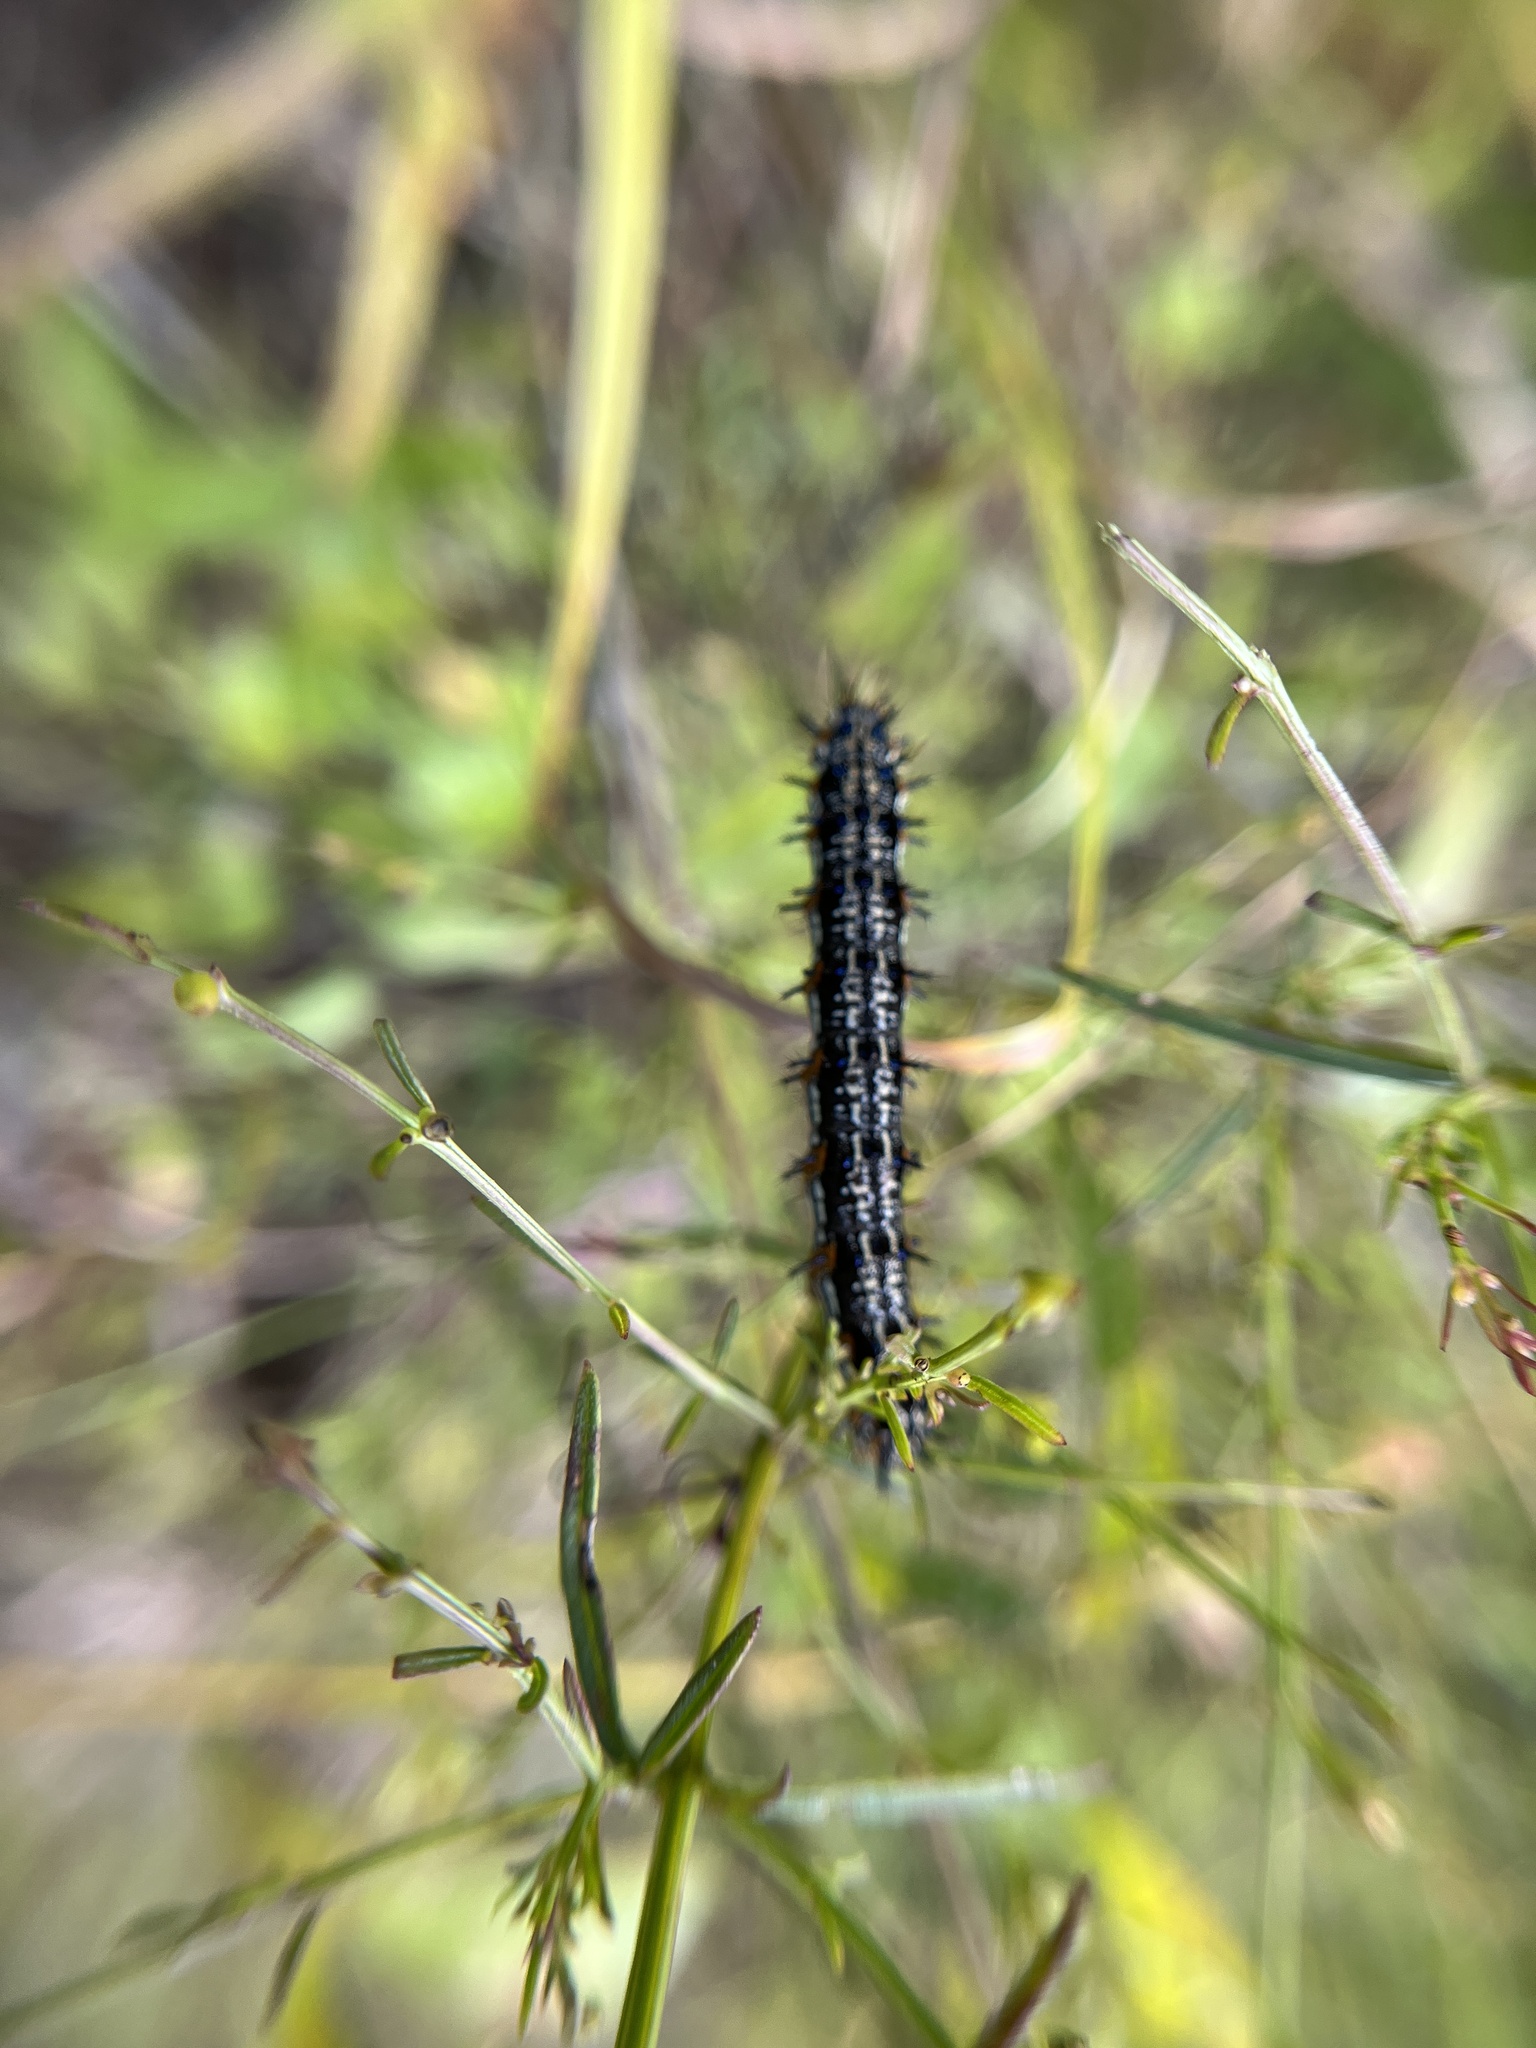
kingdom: Animalia
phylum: Arthropoda
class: Insecta
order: Lepidoptera
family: Nymphalidae
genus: Junonia
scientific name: Junonia coenia
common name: Common buckeye
